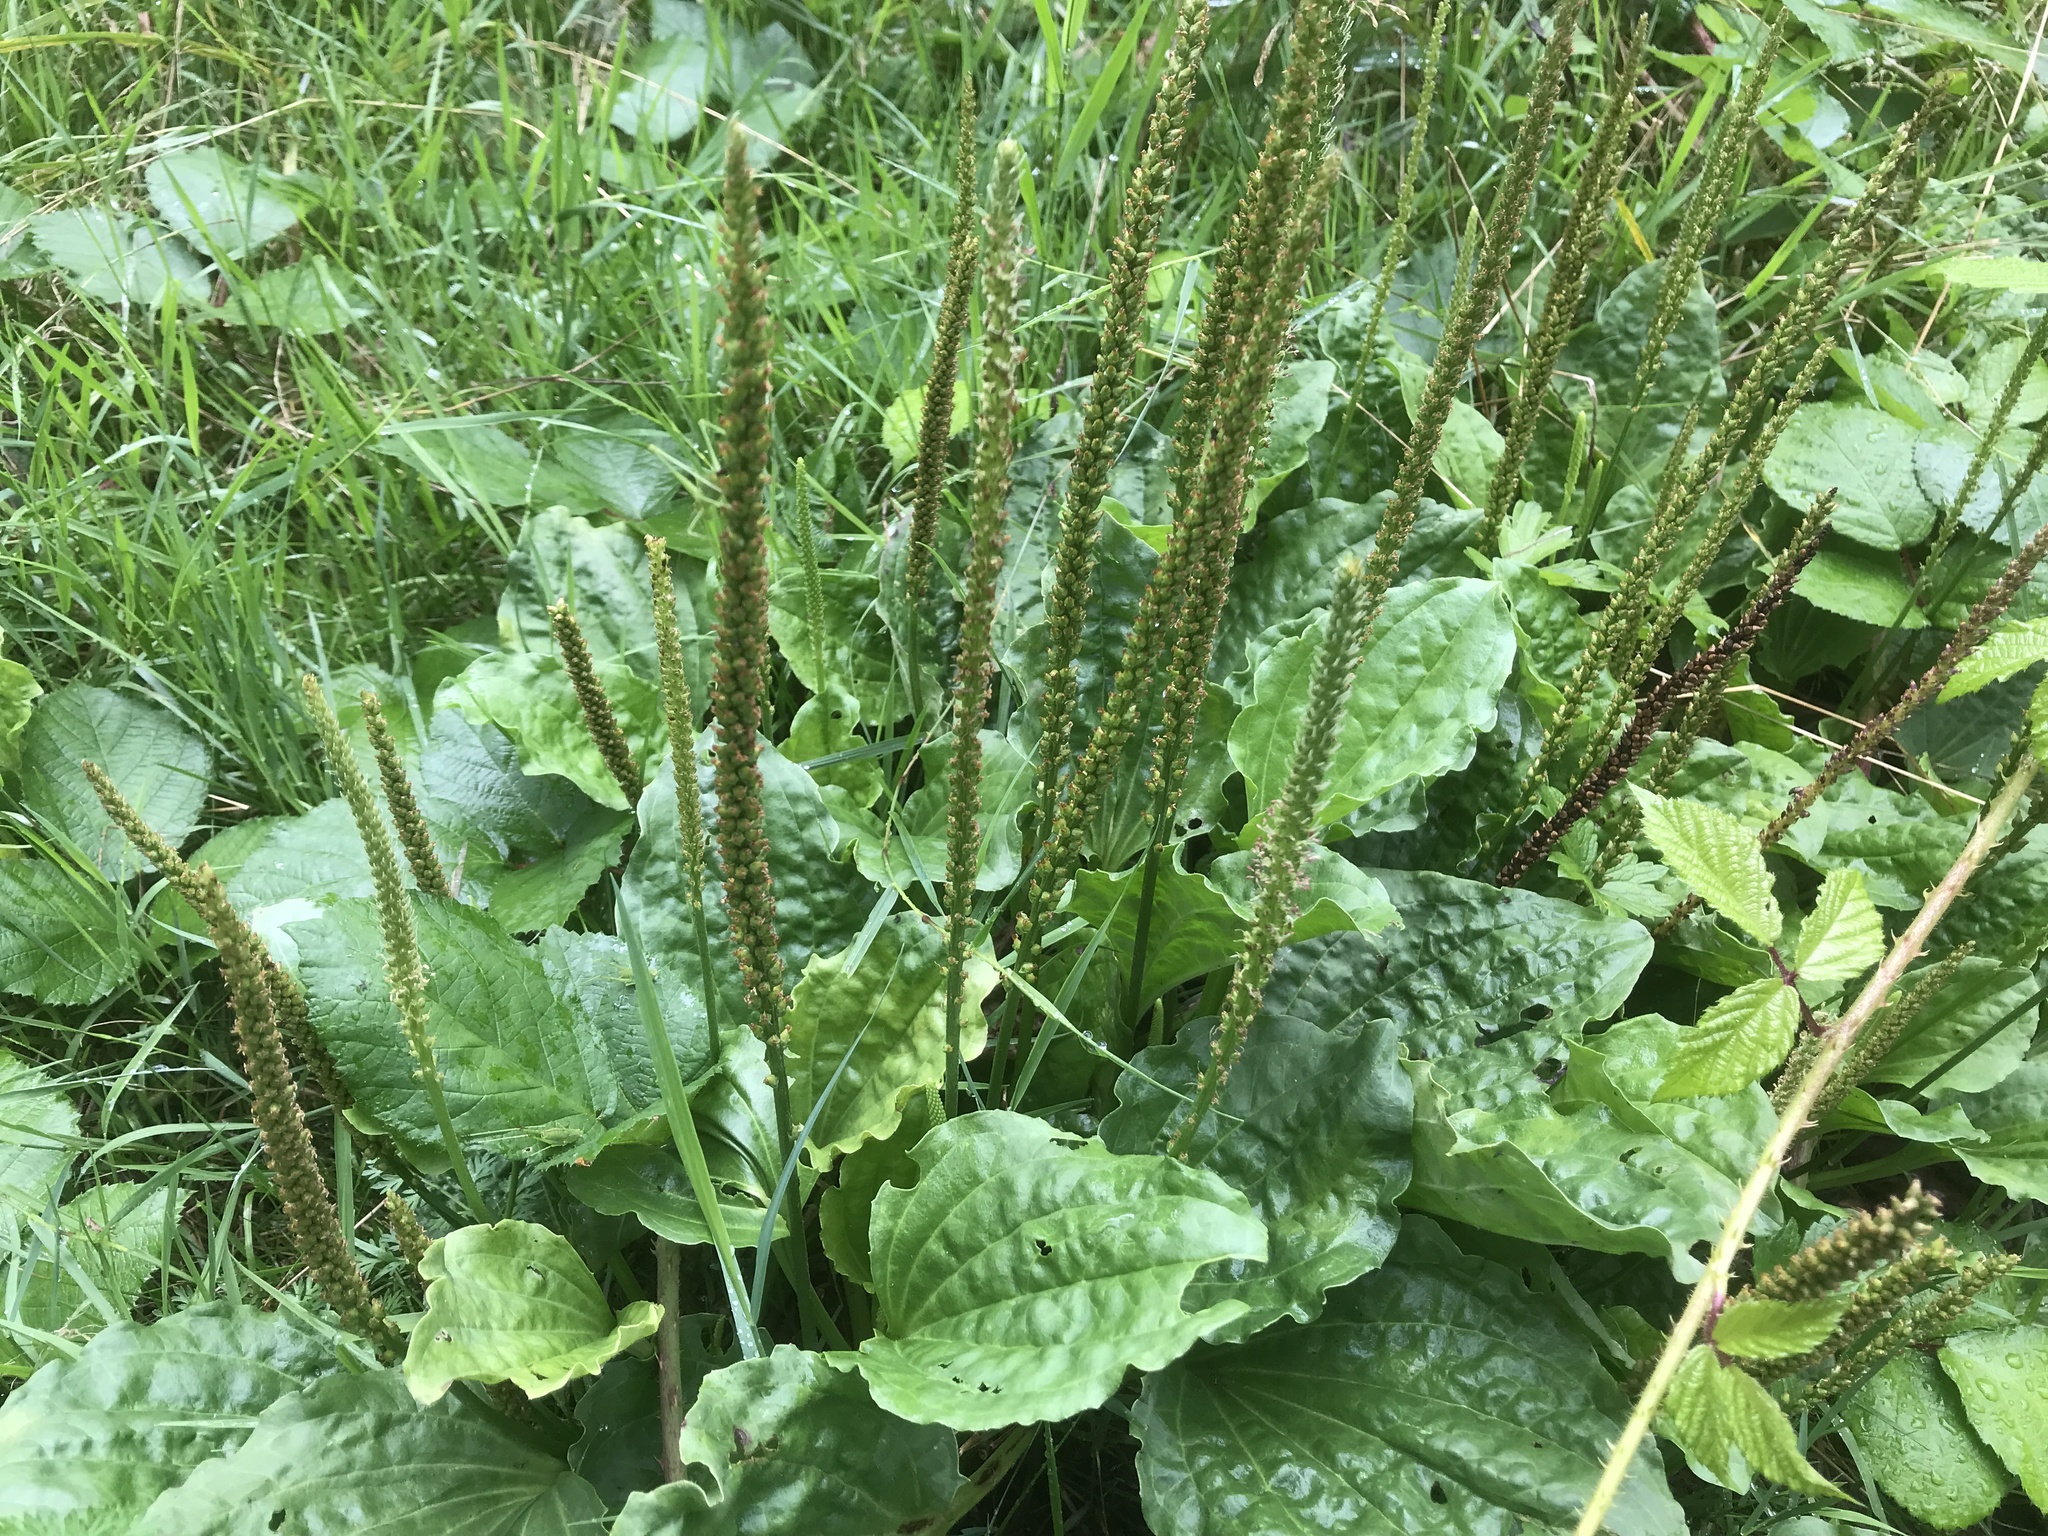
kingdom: Plantae
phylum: Tracheophyta
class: Magnoliopsida
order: Lamiales
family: Plantaginaceae
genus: Plantago
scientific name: Plantago major
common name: Common plantain
